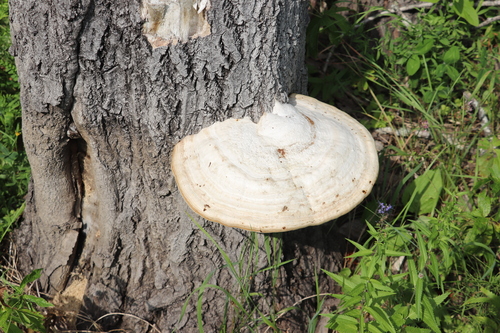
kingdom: Fungi
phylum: Basidiomycota
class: Agaricomycetes
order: Polyporales
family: Polyporaceae
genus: Fomes
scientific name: Fomes fomentarius
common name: Hoof fungus
